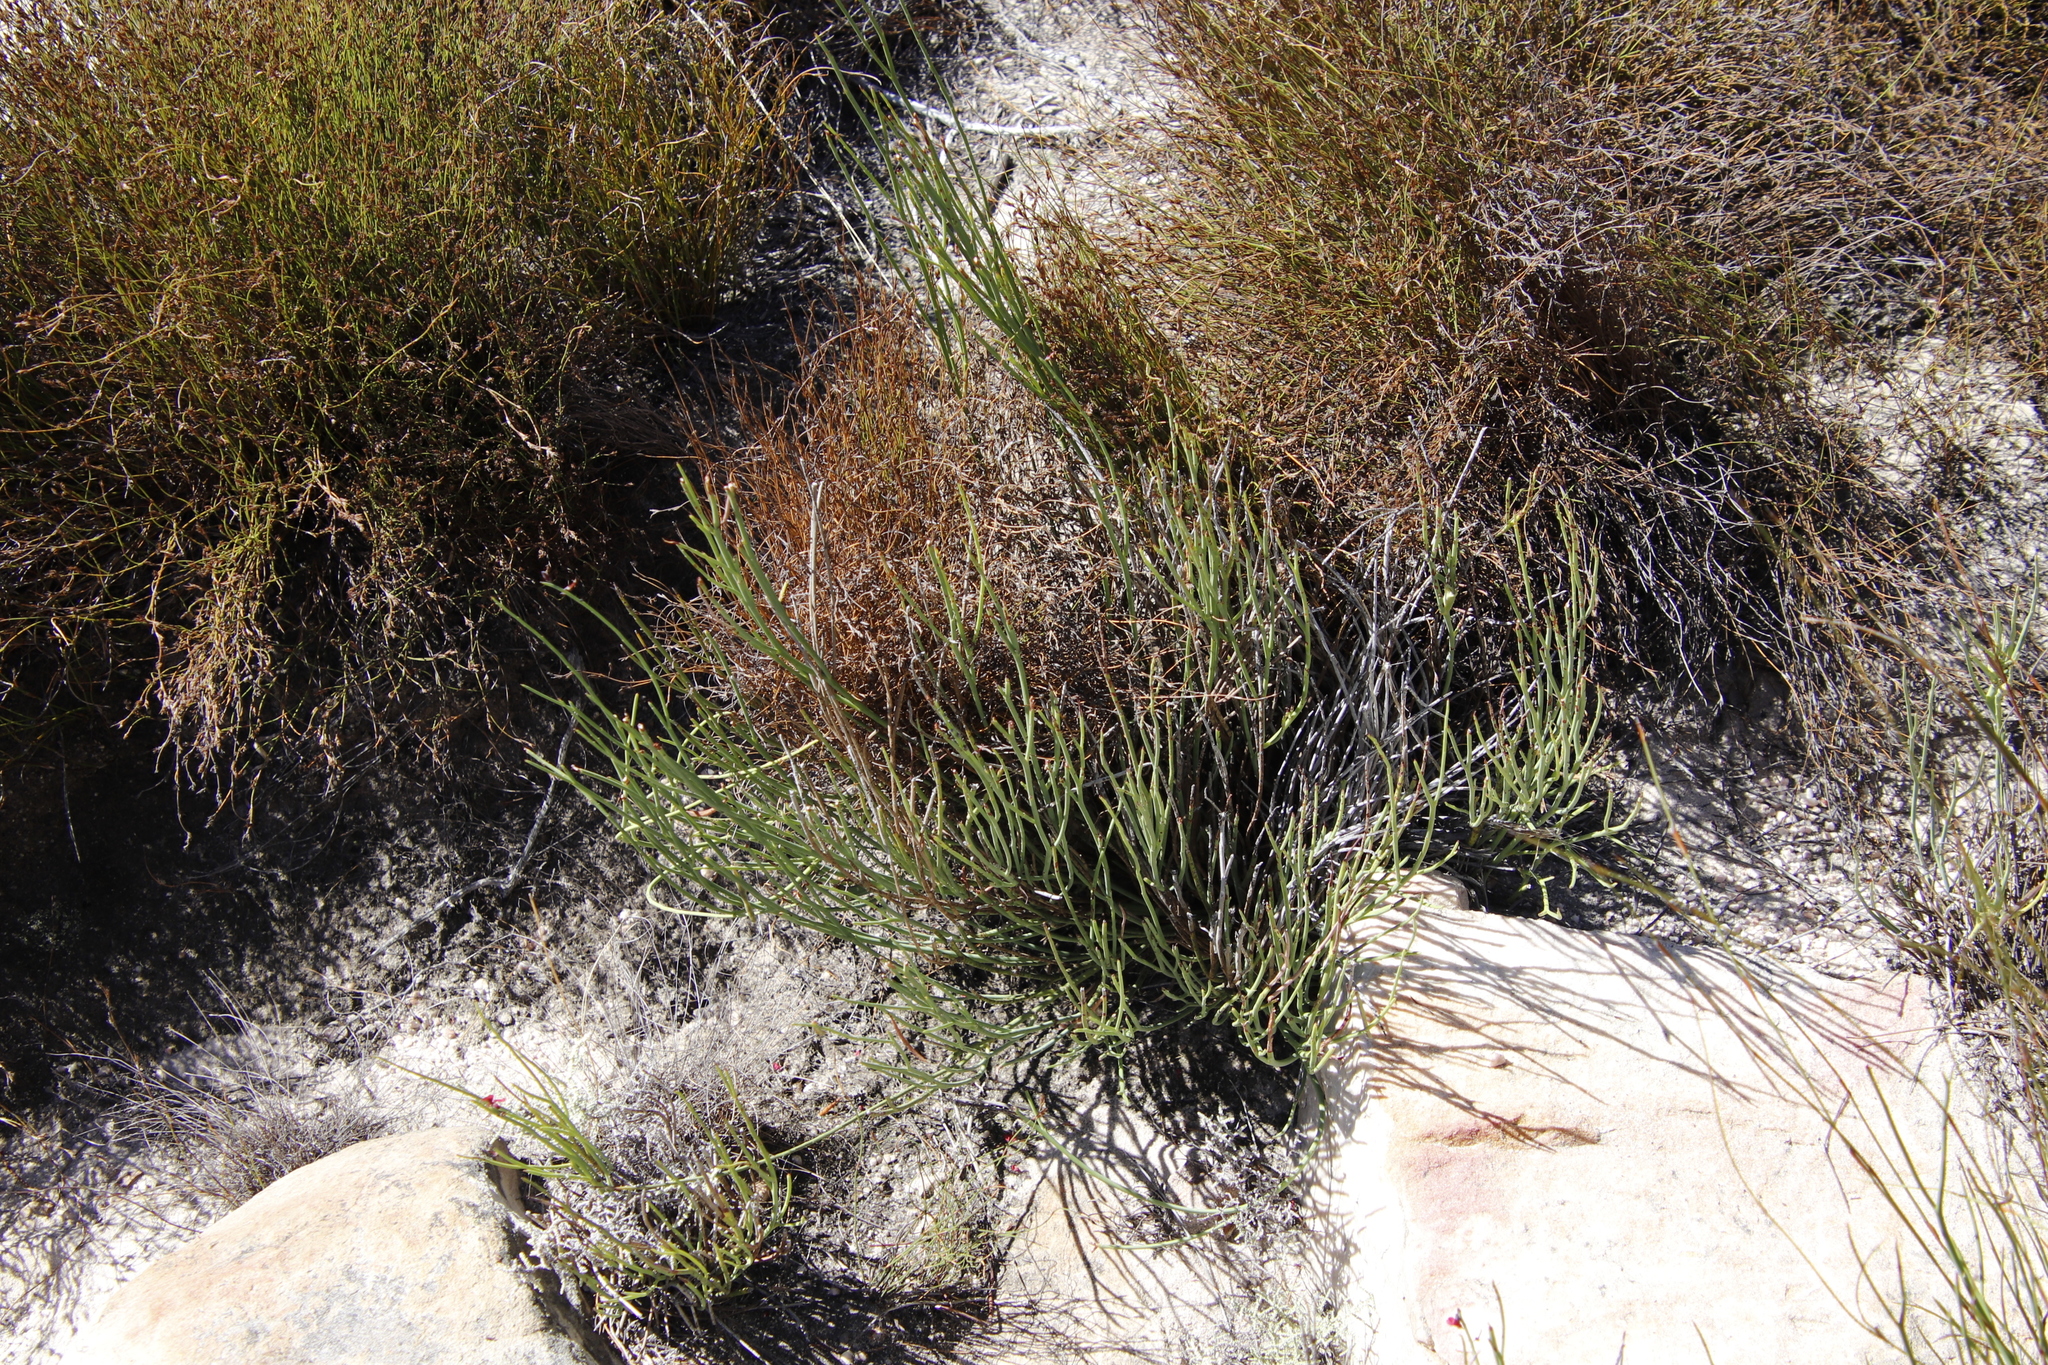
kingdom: Plantae
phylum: Tracheophyta
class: Magnoliopsida
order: Fabales
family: Fabaceae
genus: Indigofera
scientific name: Indigofera gifbergensis
